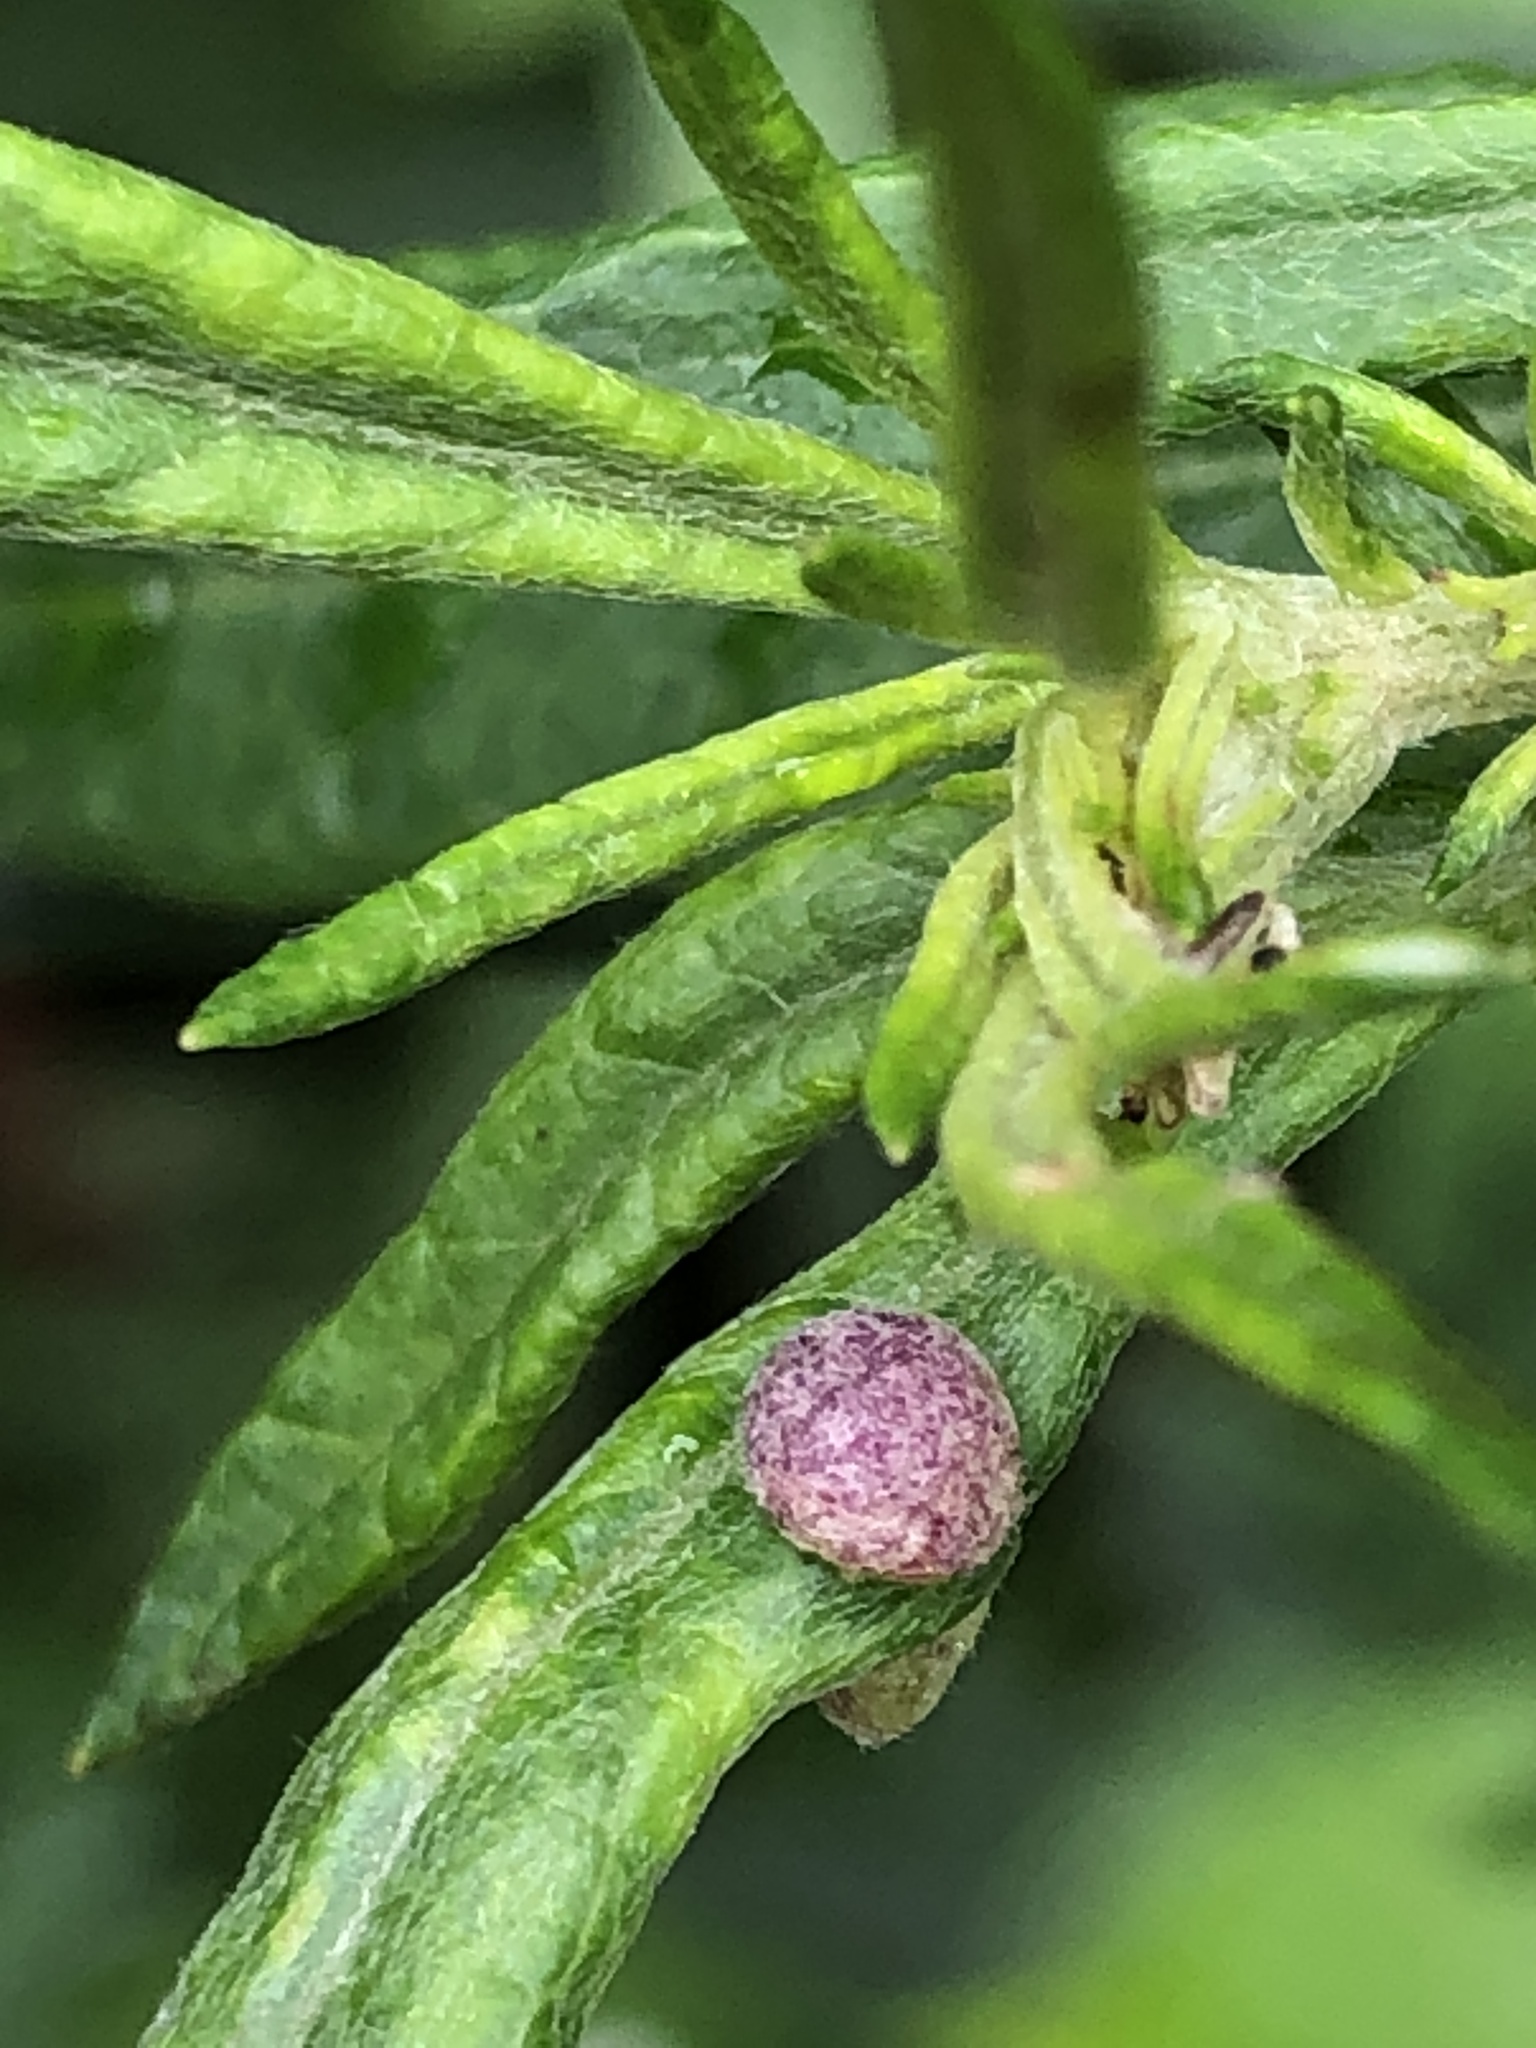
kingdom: Animalia
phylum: Arthropoda
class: Insecta
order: Diptera
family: Cecidomyiidae
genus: Rhopalomyia
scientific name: Rhopalomyia yomogicola
